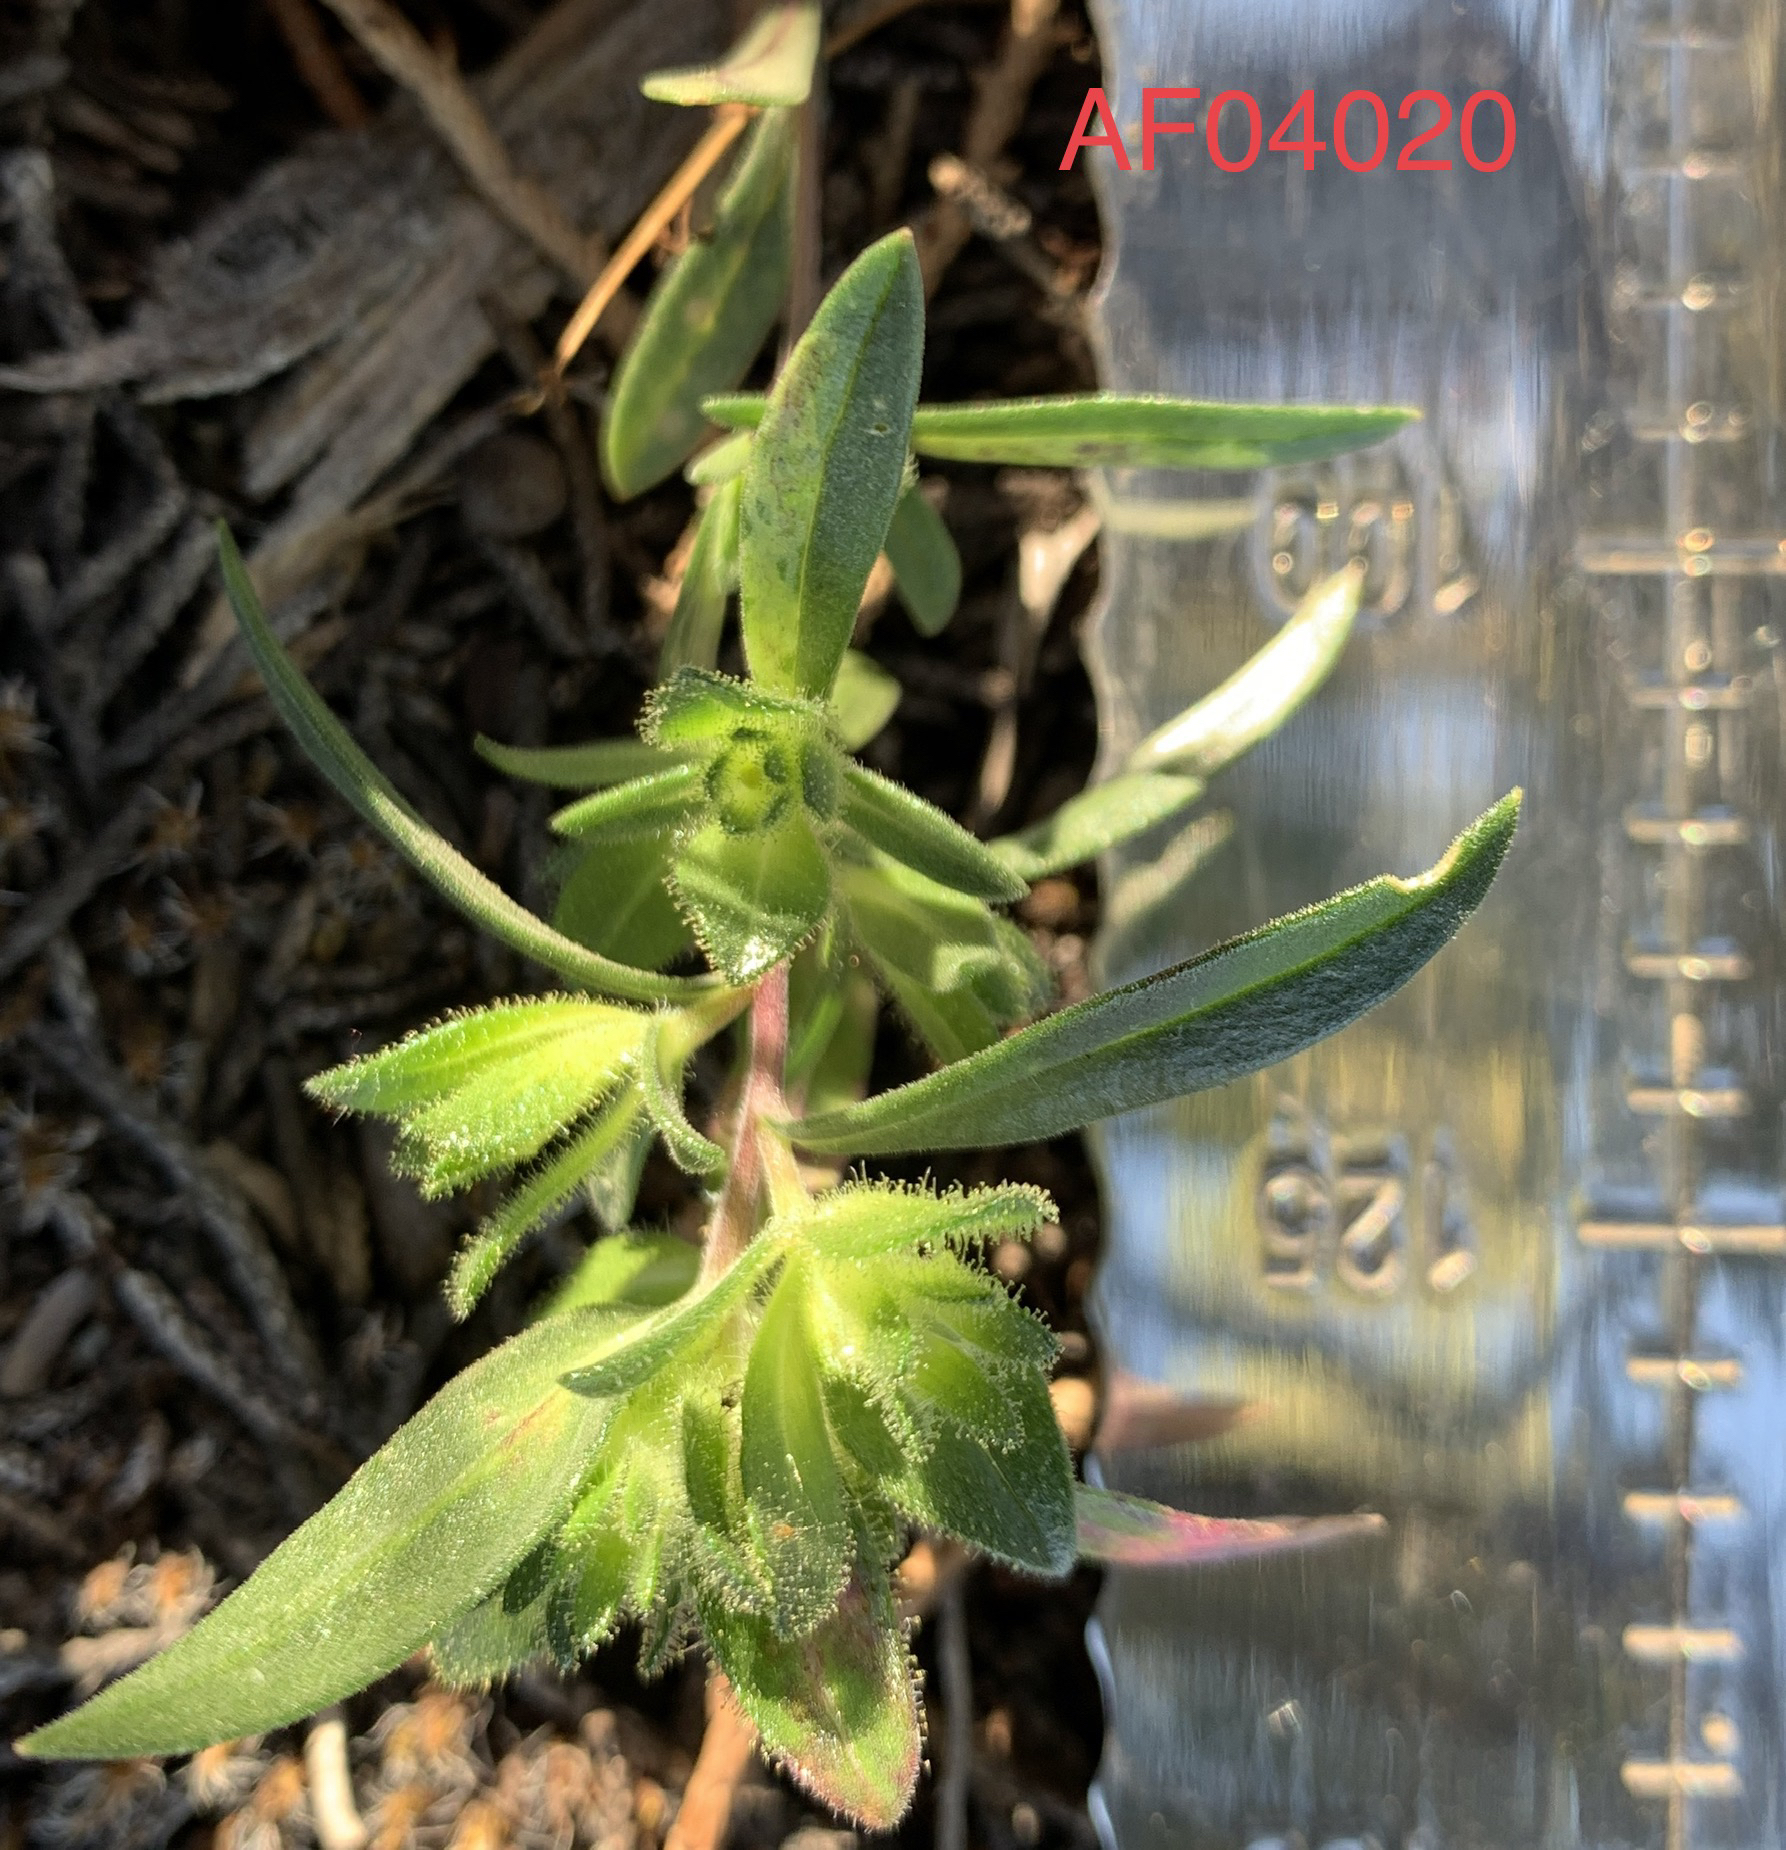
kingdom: Plantae
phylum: Tracheophyta
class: Magnoliopsida
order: Ericales
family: Polemoniaceae
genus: Collomia
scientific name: Collomia grandiflora
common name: California strawflower
